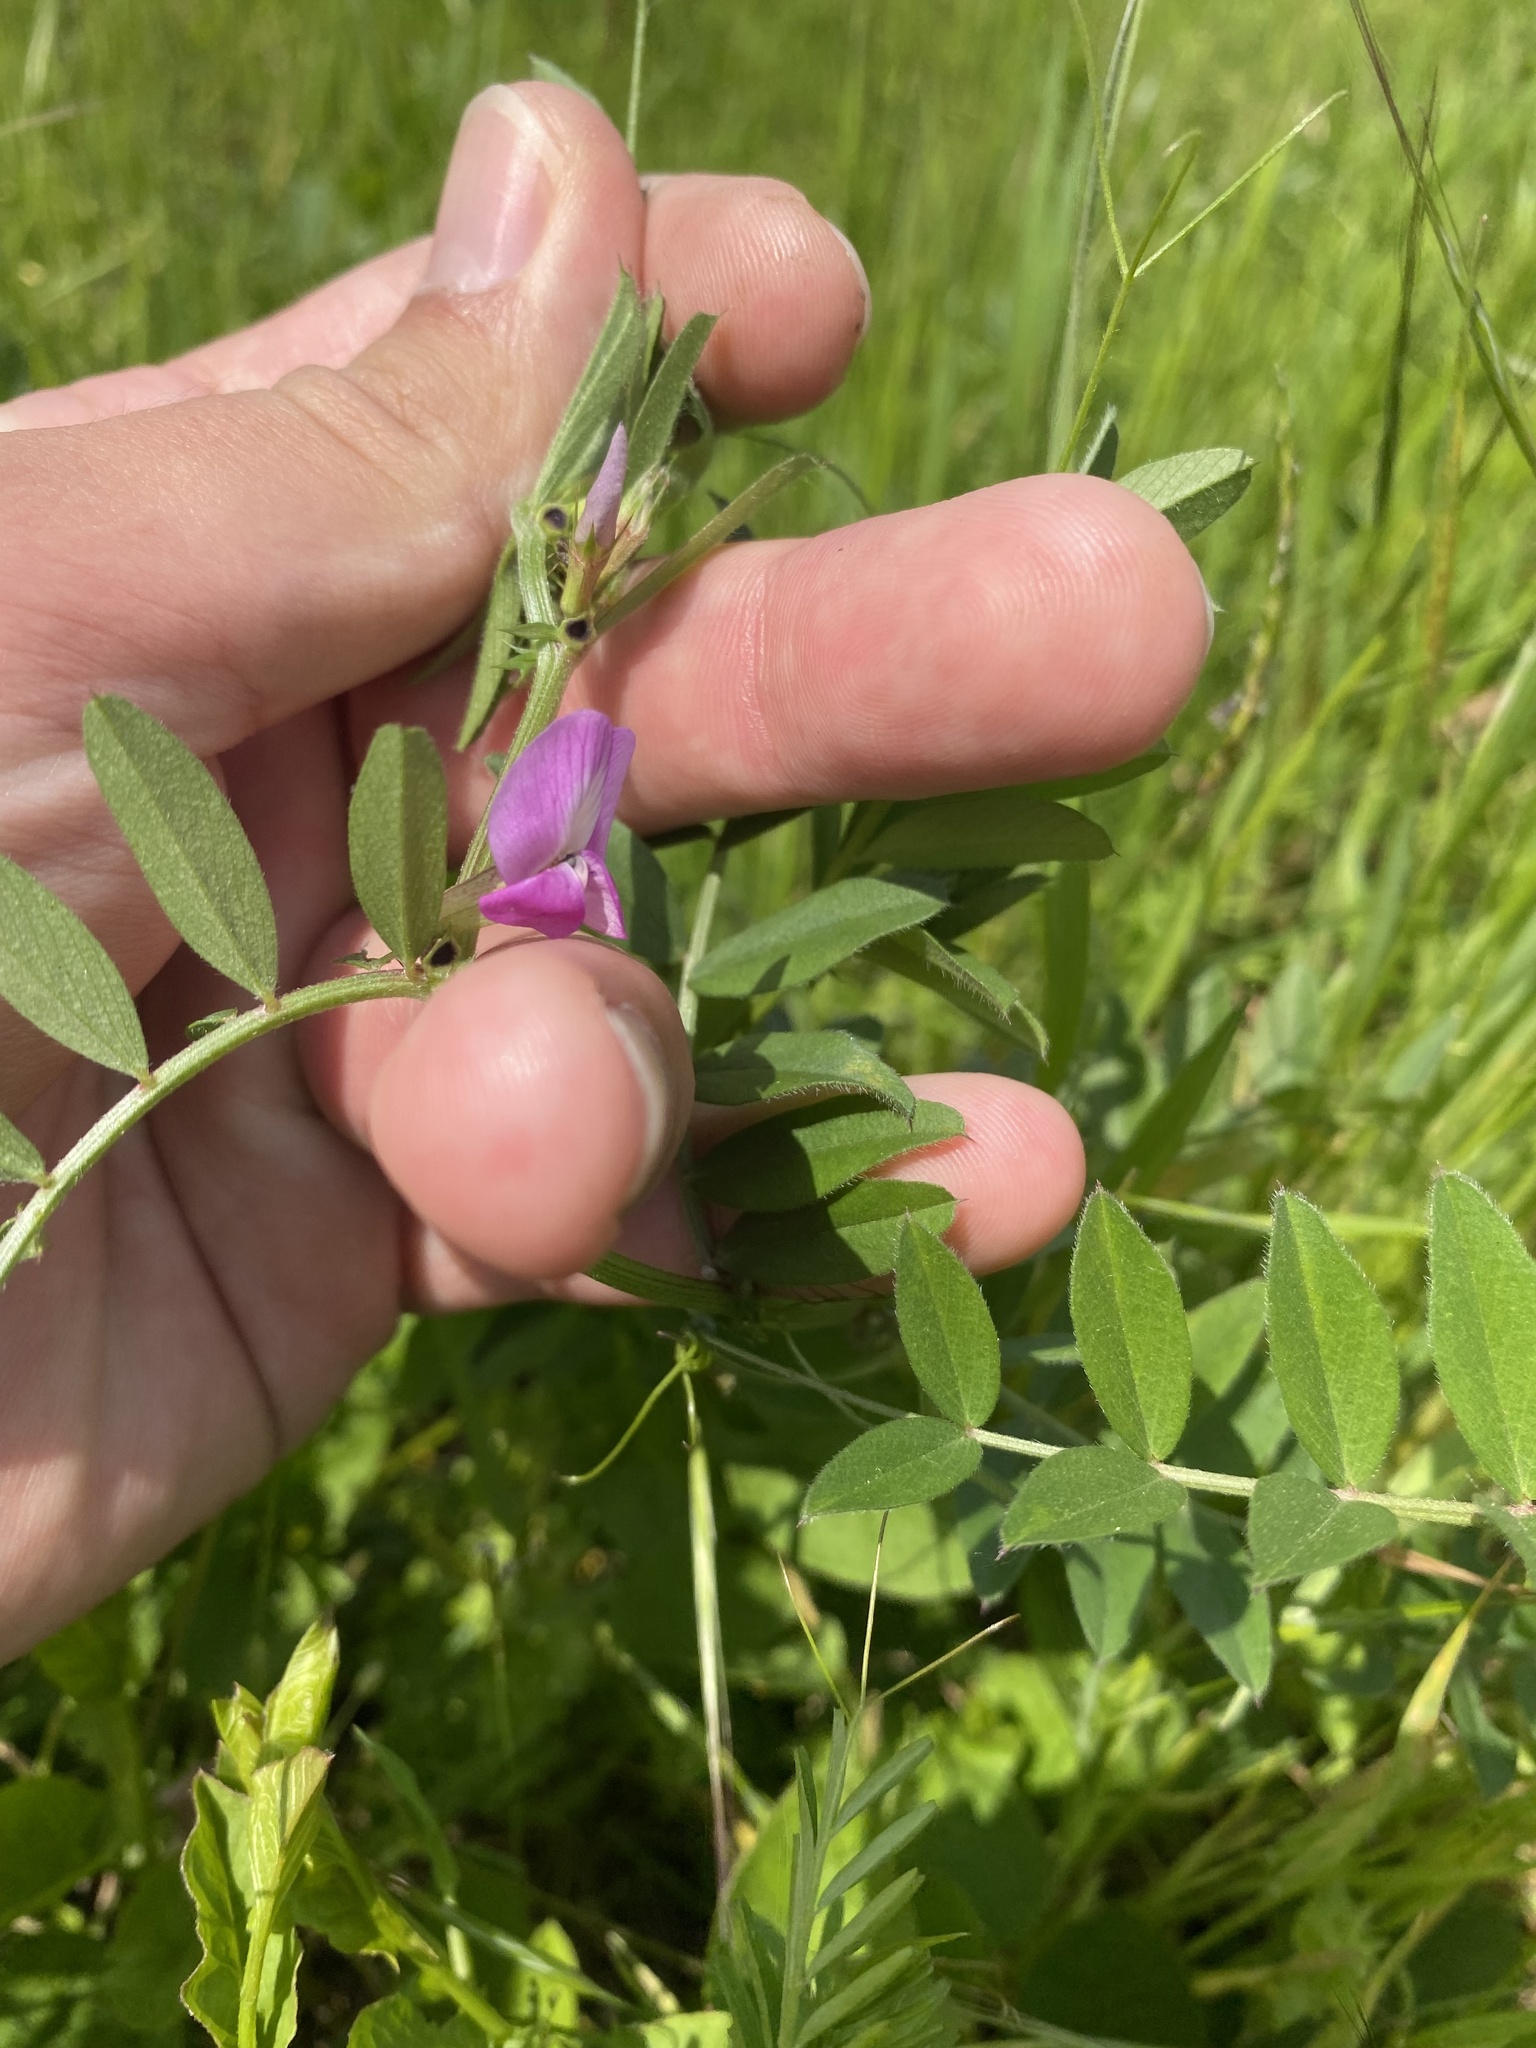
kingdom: Plantae
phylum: Tracheophyta
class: Magnoliopsida
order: Fabales
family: Fabaceae
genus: Vicia
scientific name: Vicia sativa
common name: Garden vetch
